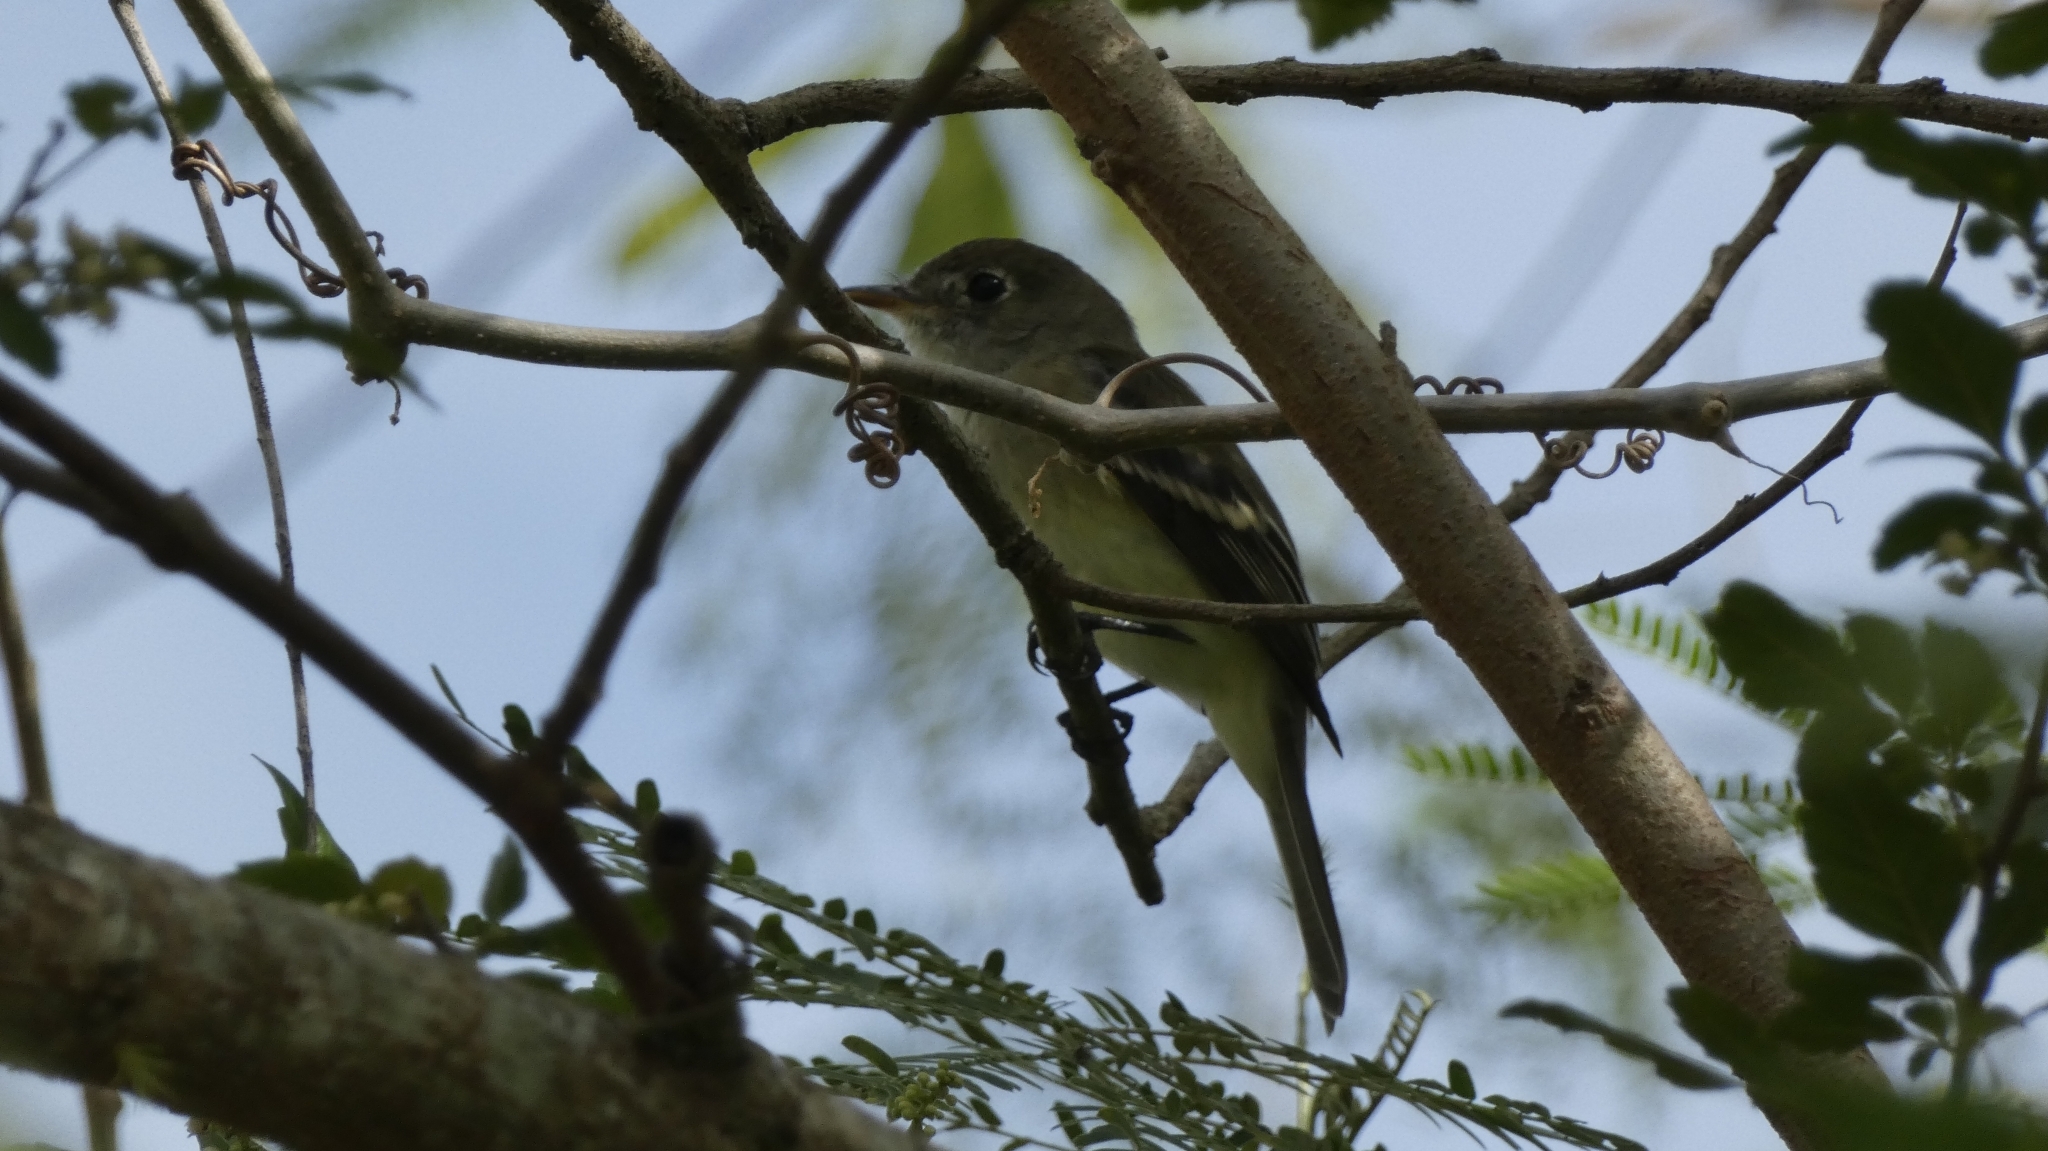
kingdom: Animalia
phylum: Chordata
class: Aves
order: Passeriformes
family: Tyrannidae
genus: Empidonax
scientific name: Empidonax minimus
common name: Least flycatcher
